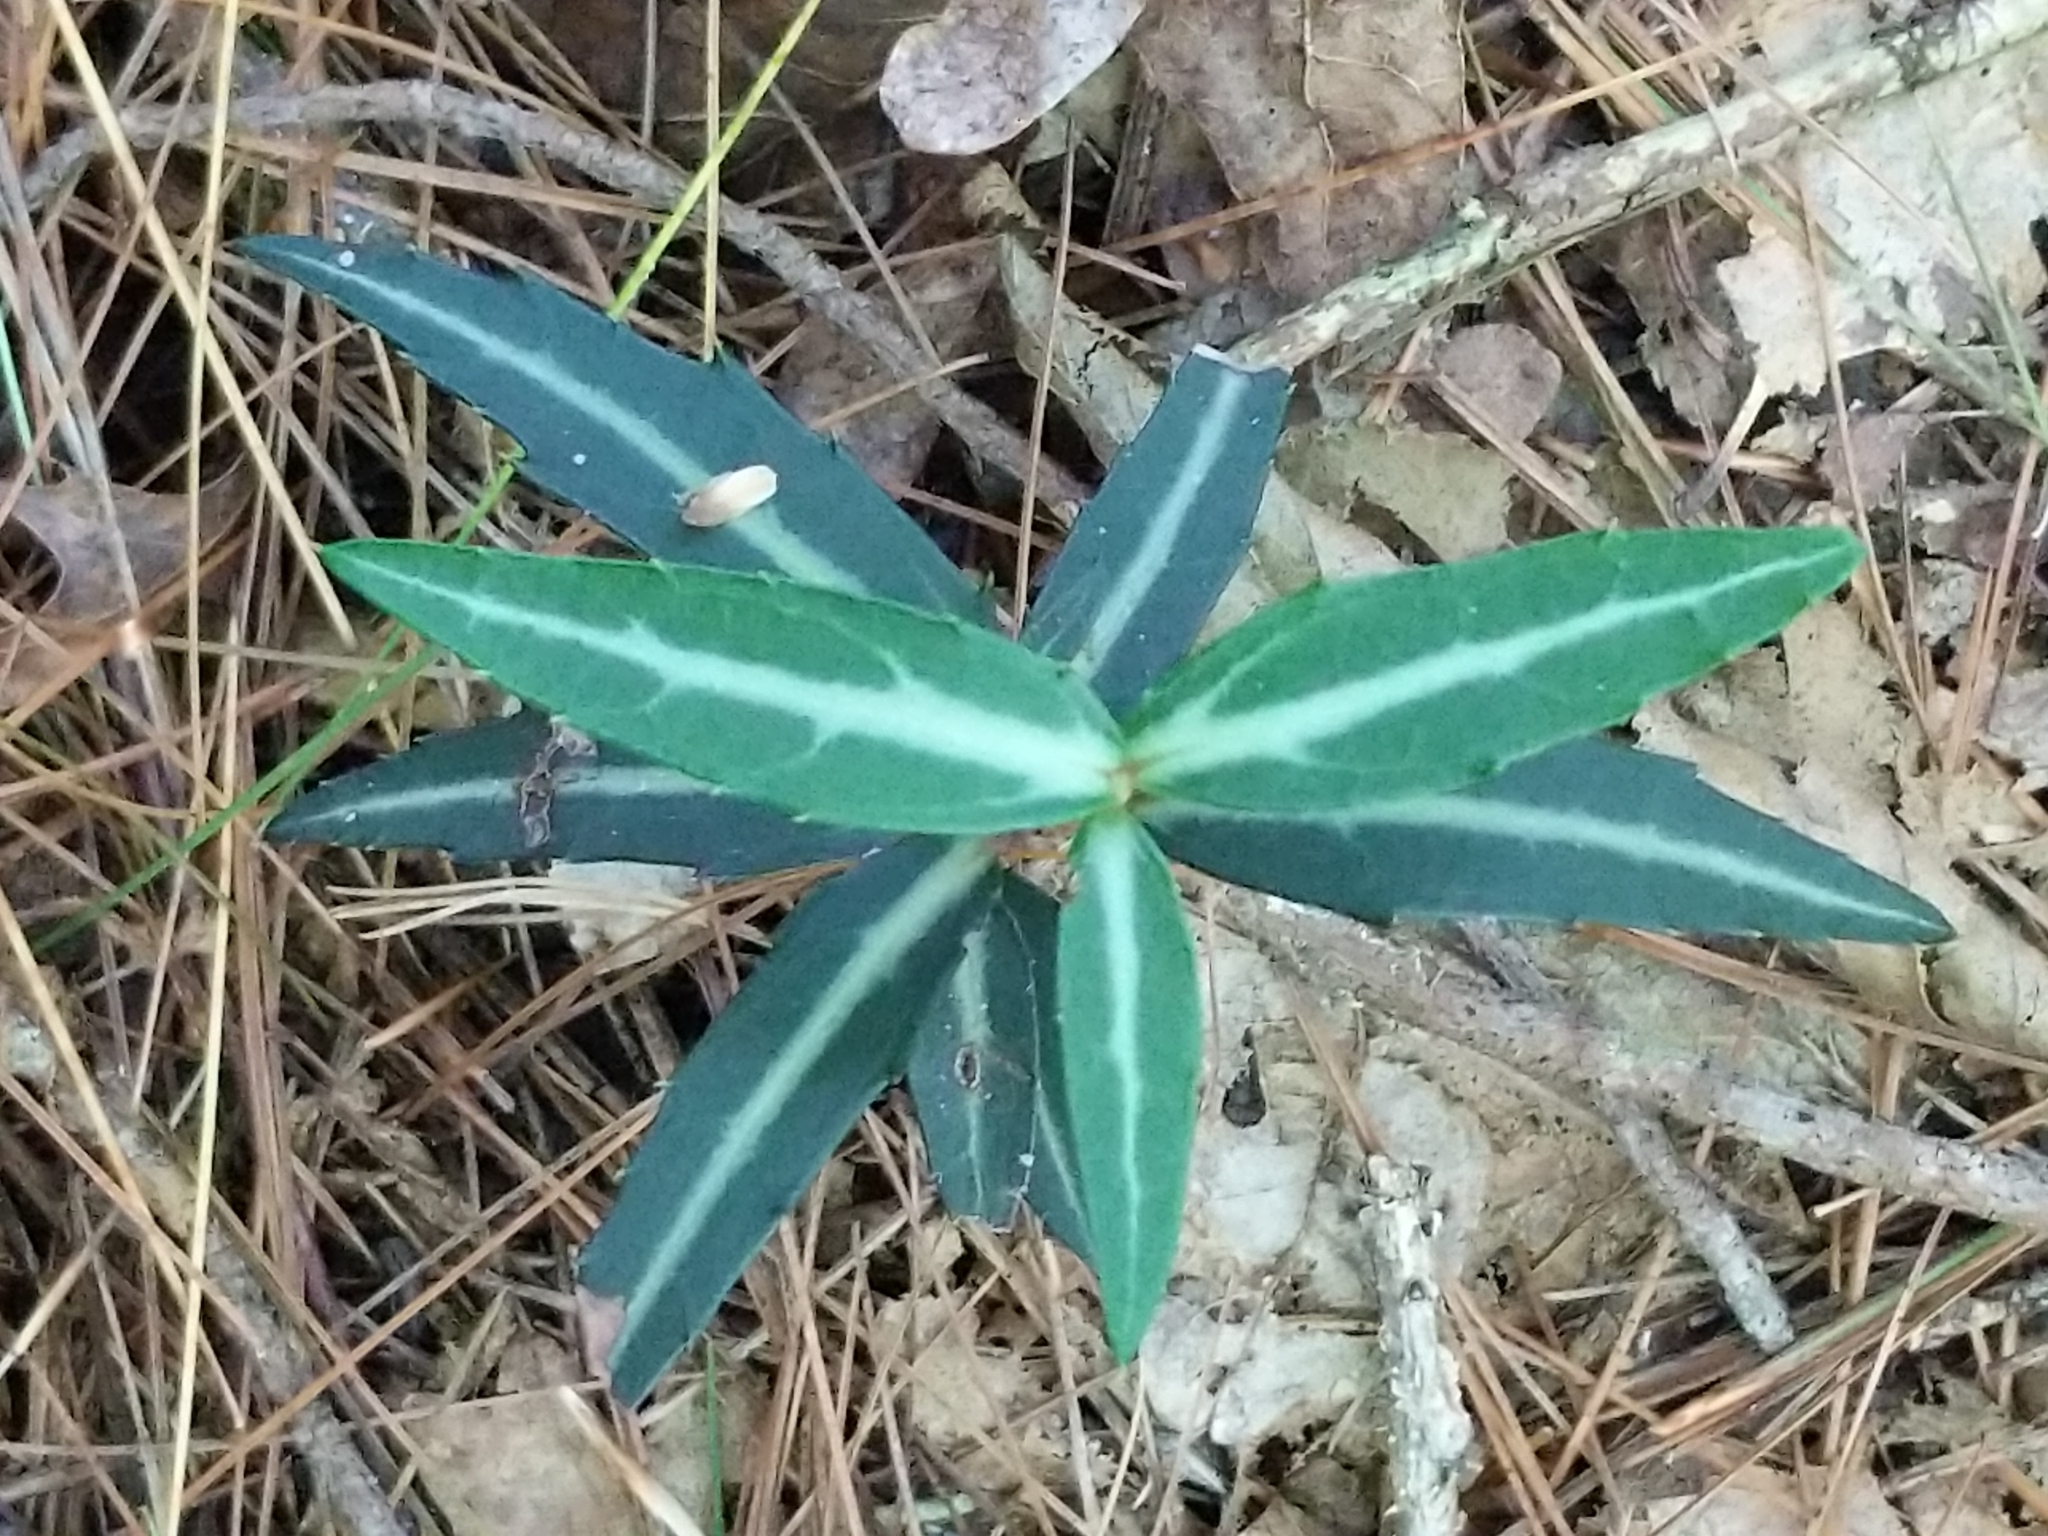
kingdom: Plantae
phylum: Tracheophyta
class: Magnoliopsida
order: Ericales
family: Ericaceae
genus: Chimaphila
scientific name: Chimaphila maculata
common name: Spotted pipsissewa
